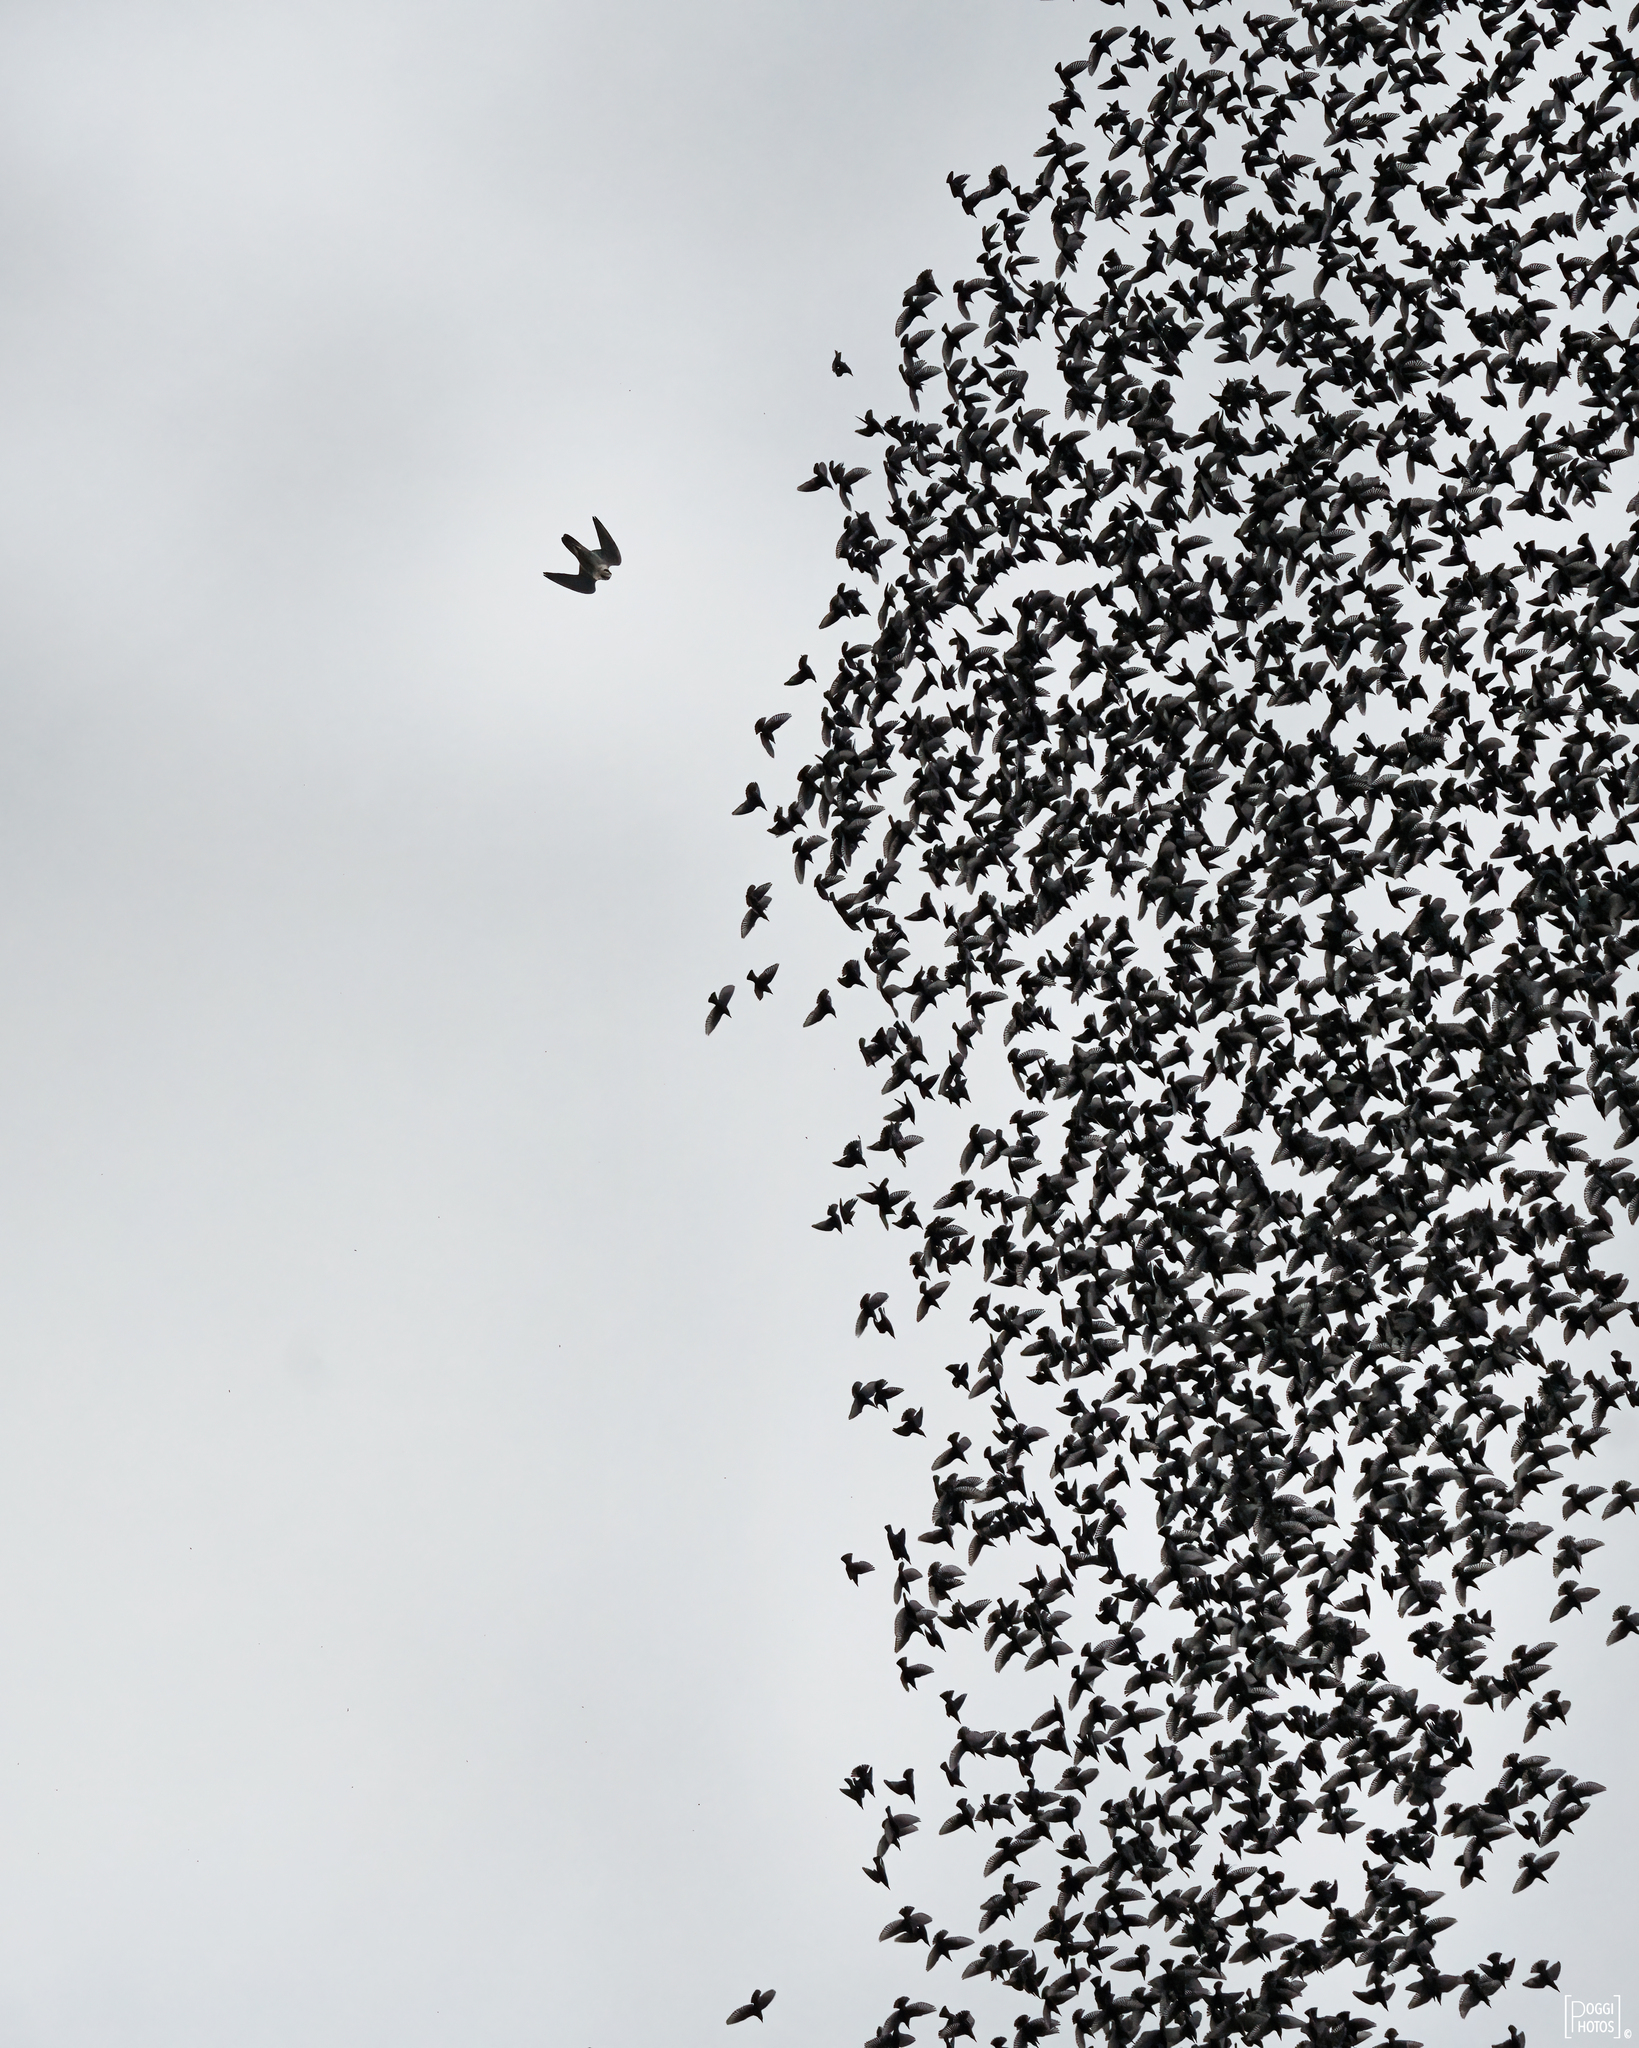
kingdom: Animalia
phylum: Chordata
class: Aves
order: Falconiformes
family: Falconidae
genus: Falco
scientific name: Falco peregrinus
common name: Peregrine falcon
